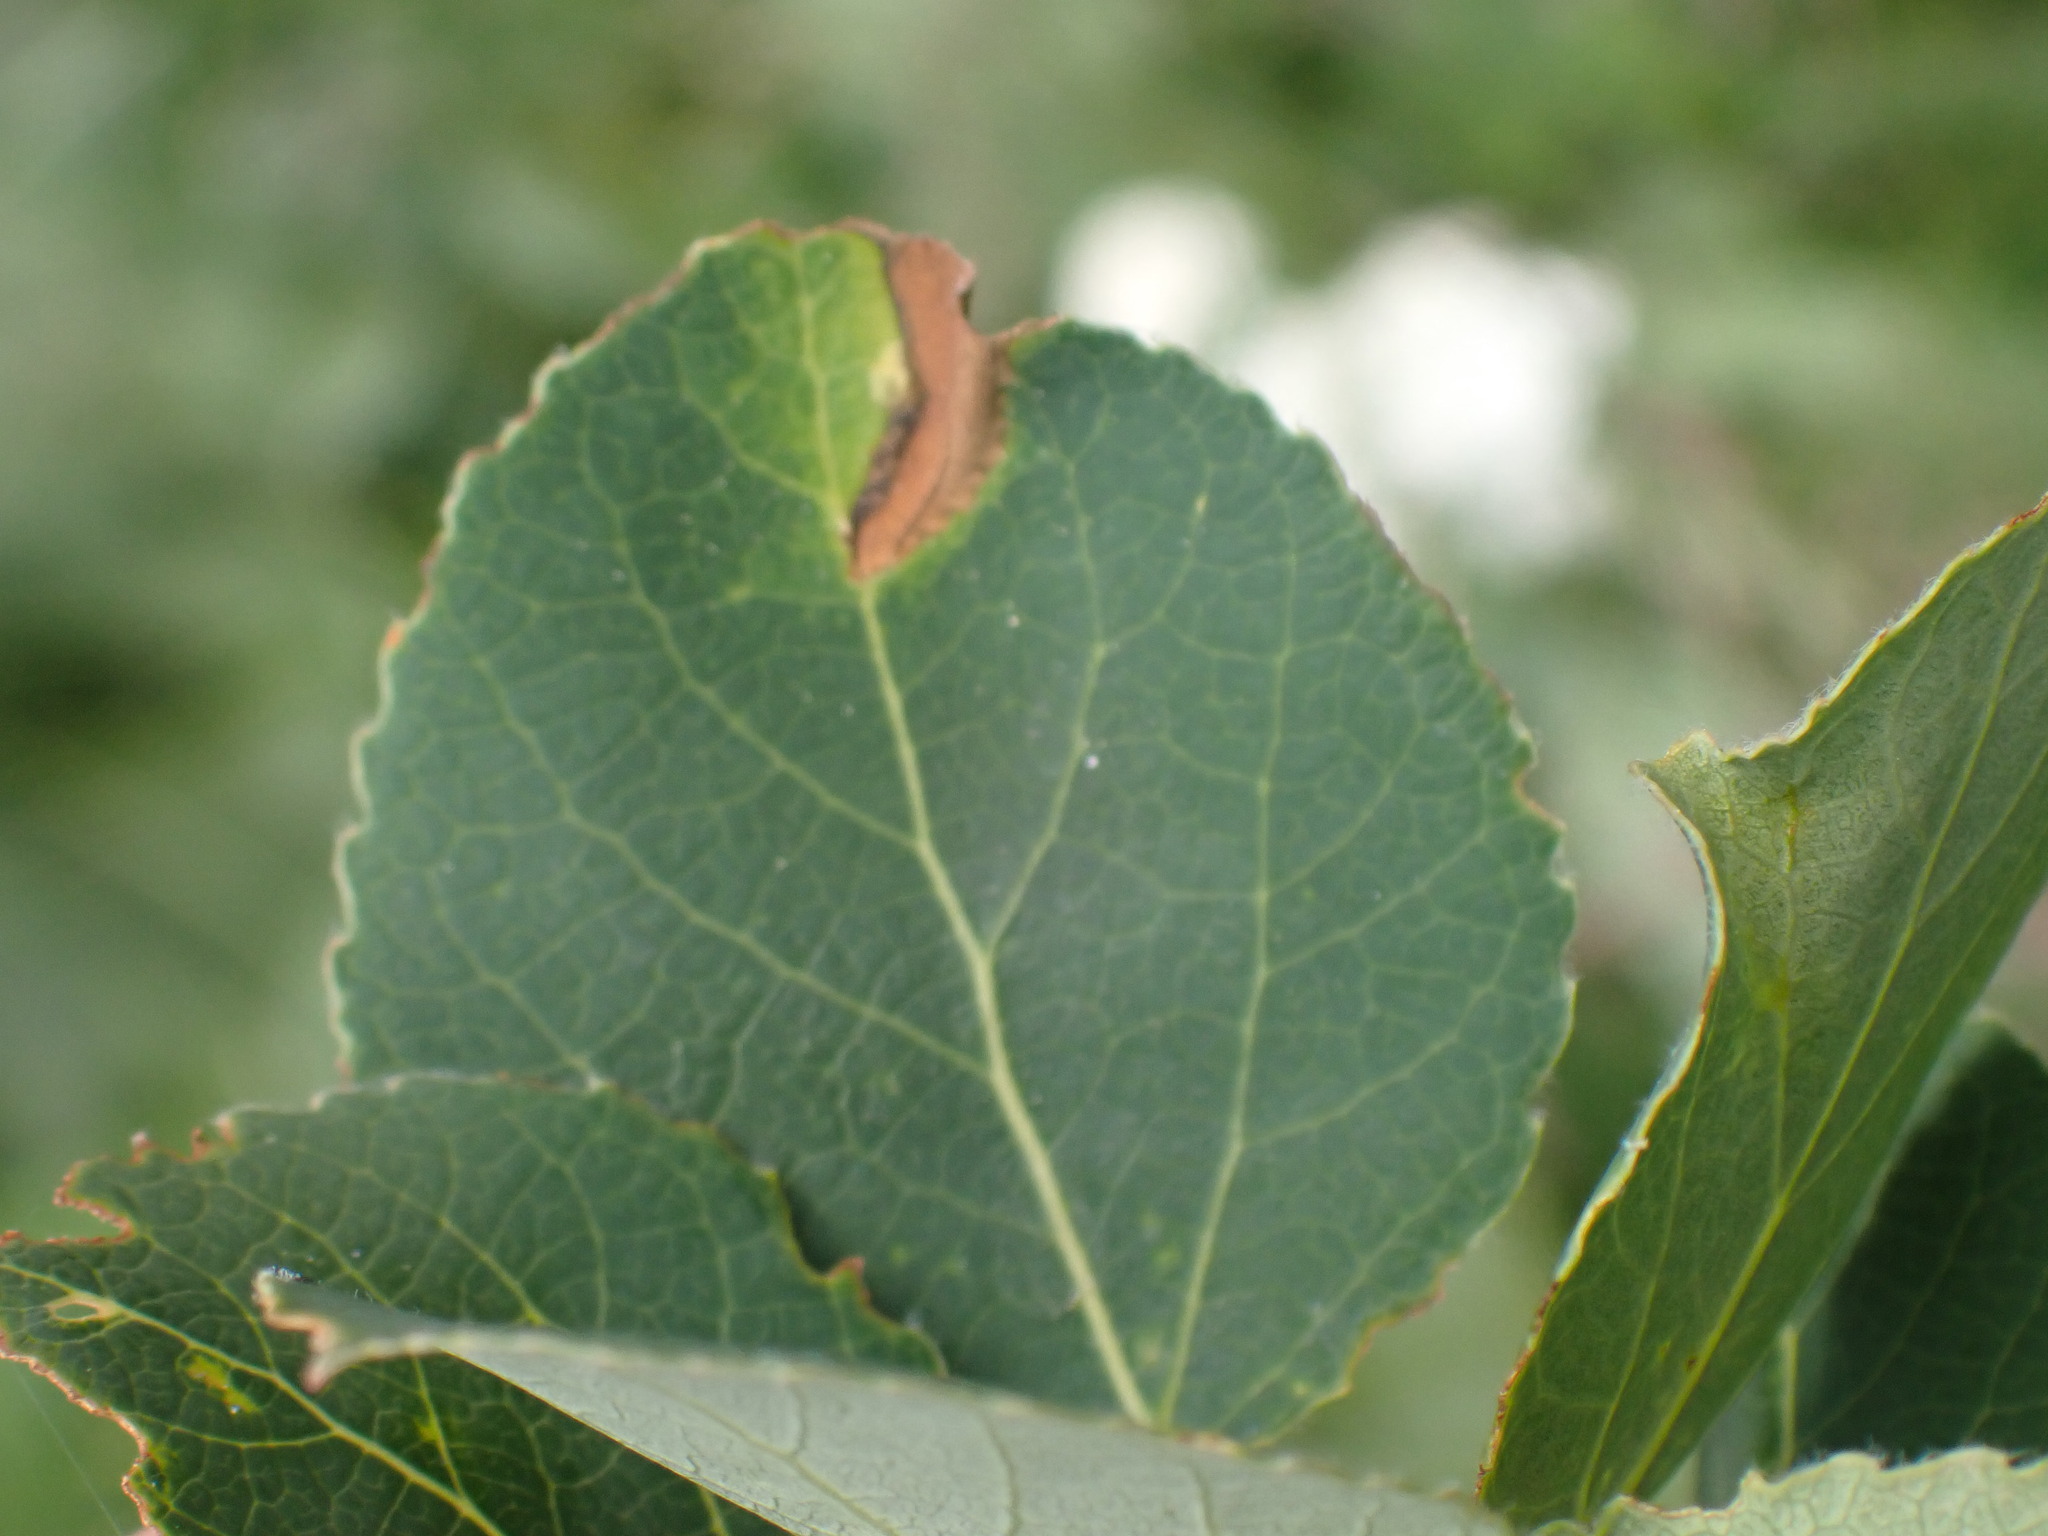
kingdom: Plantae
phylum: Tracheophyta
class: Magnoliopsida
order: Malpighiales
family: Salicaceae
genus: Populus
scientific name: Populus tremuloides
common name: Quaking aspen
